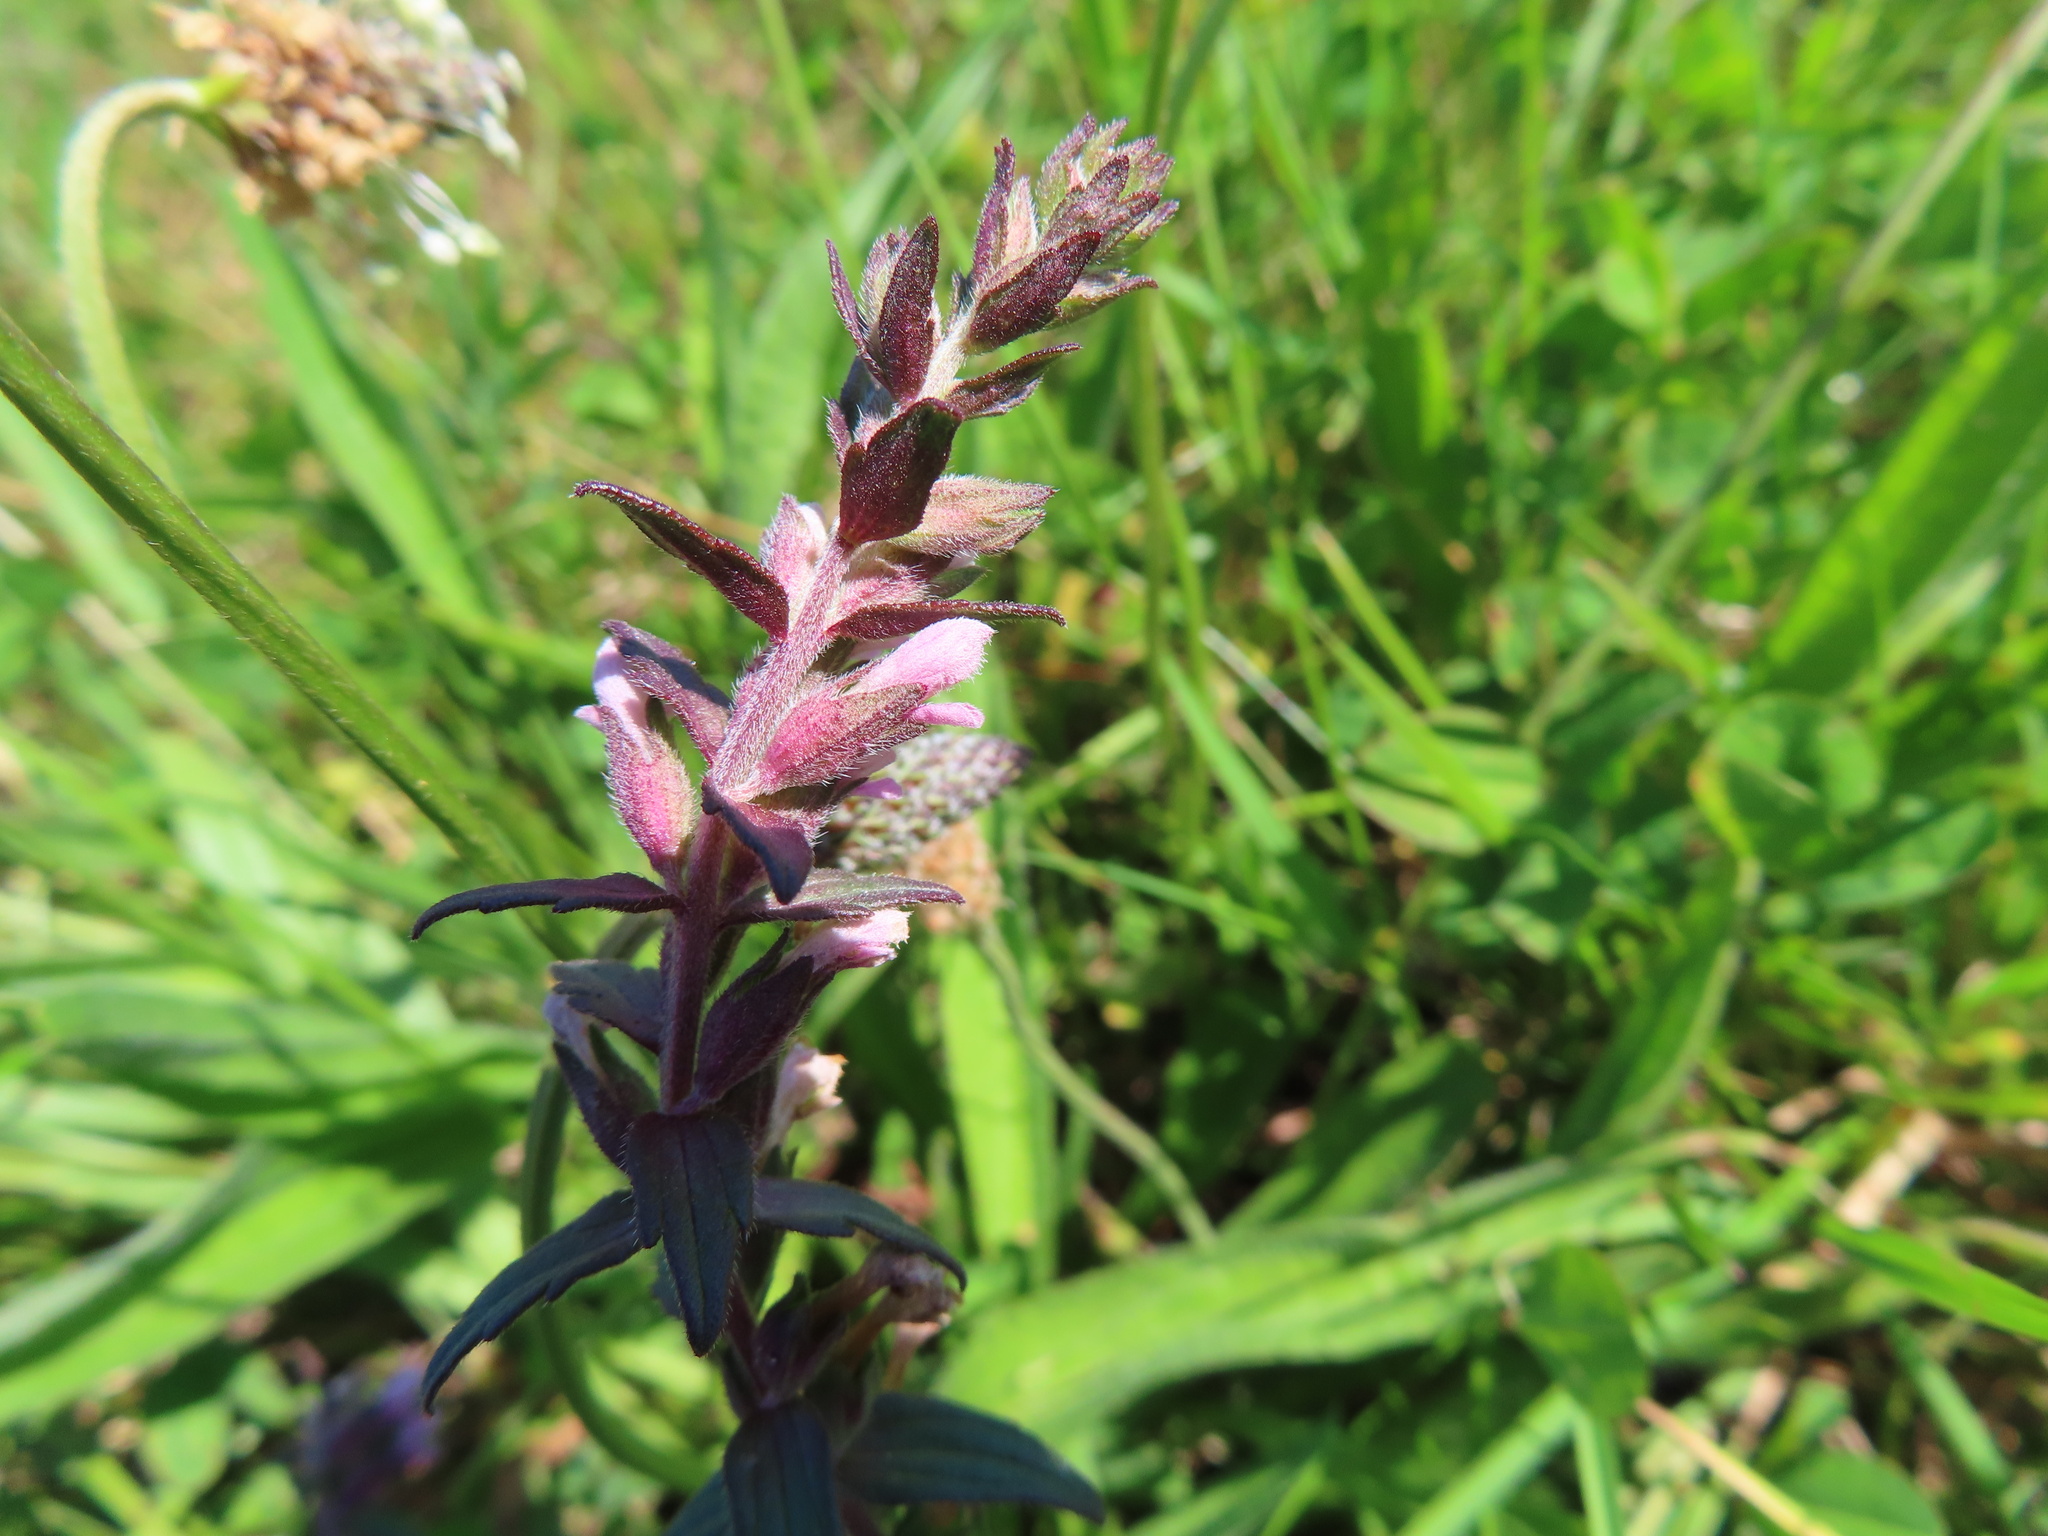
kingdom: Plantae
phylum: Tracheophyta
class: Magnoliopsida
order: Lamiales
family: Orobanchaceae
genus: Odontites
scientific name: Odontites vulgaris
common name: Broomrape
